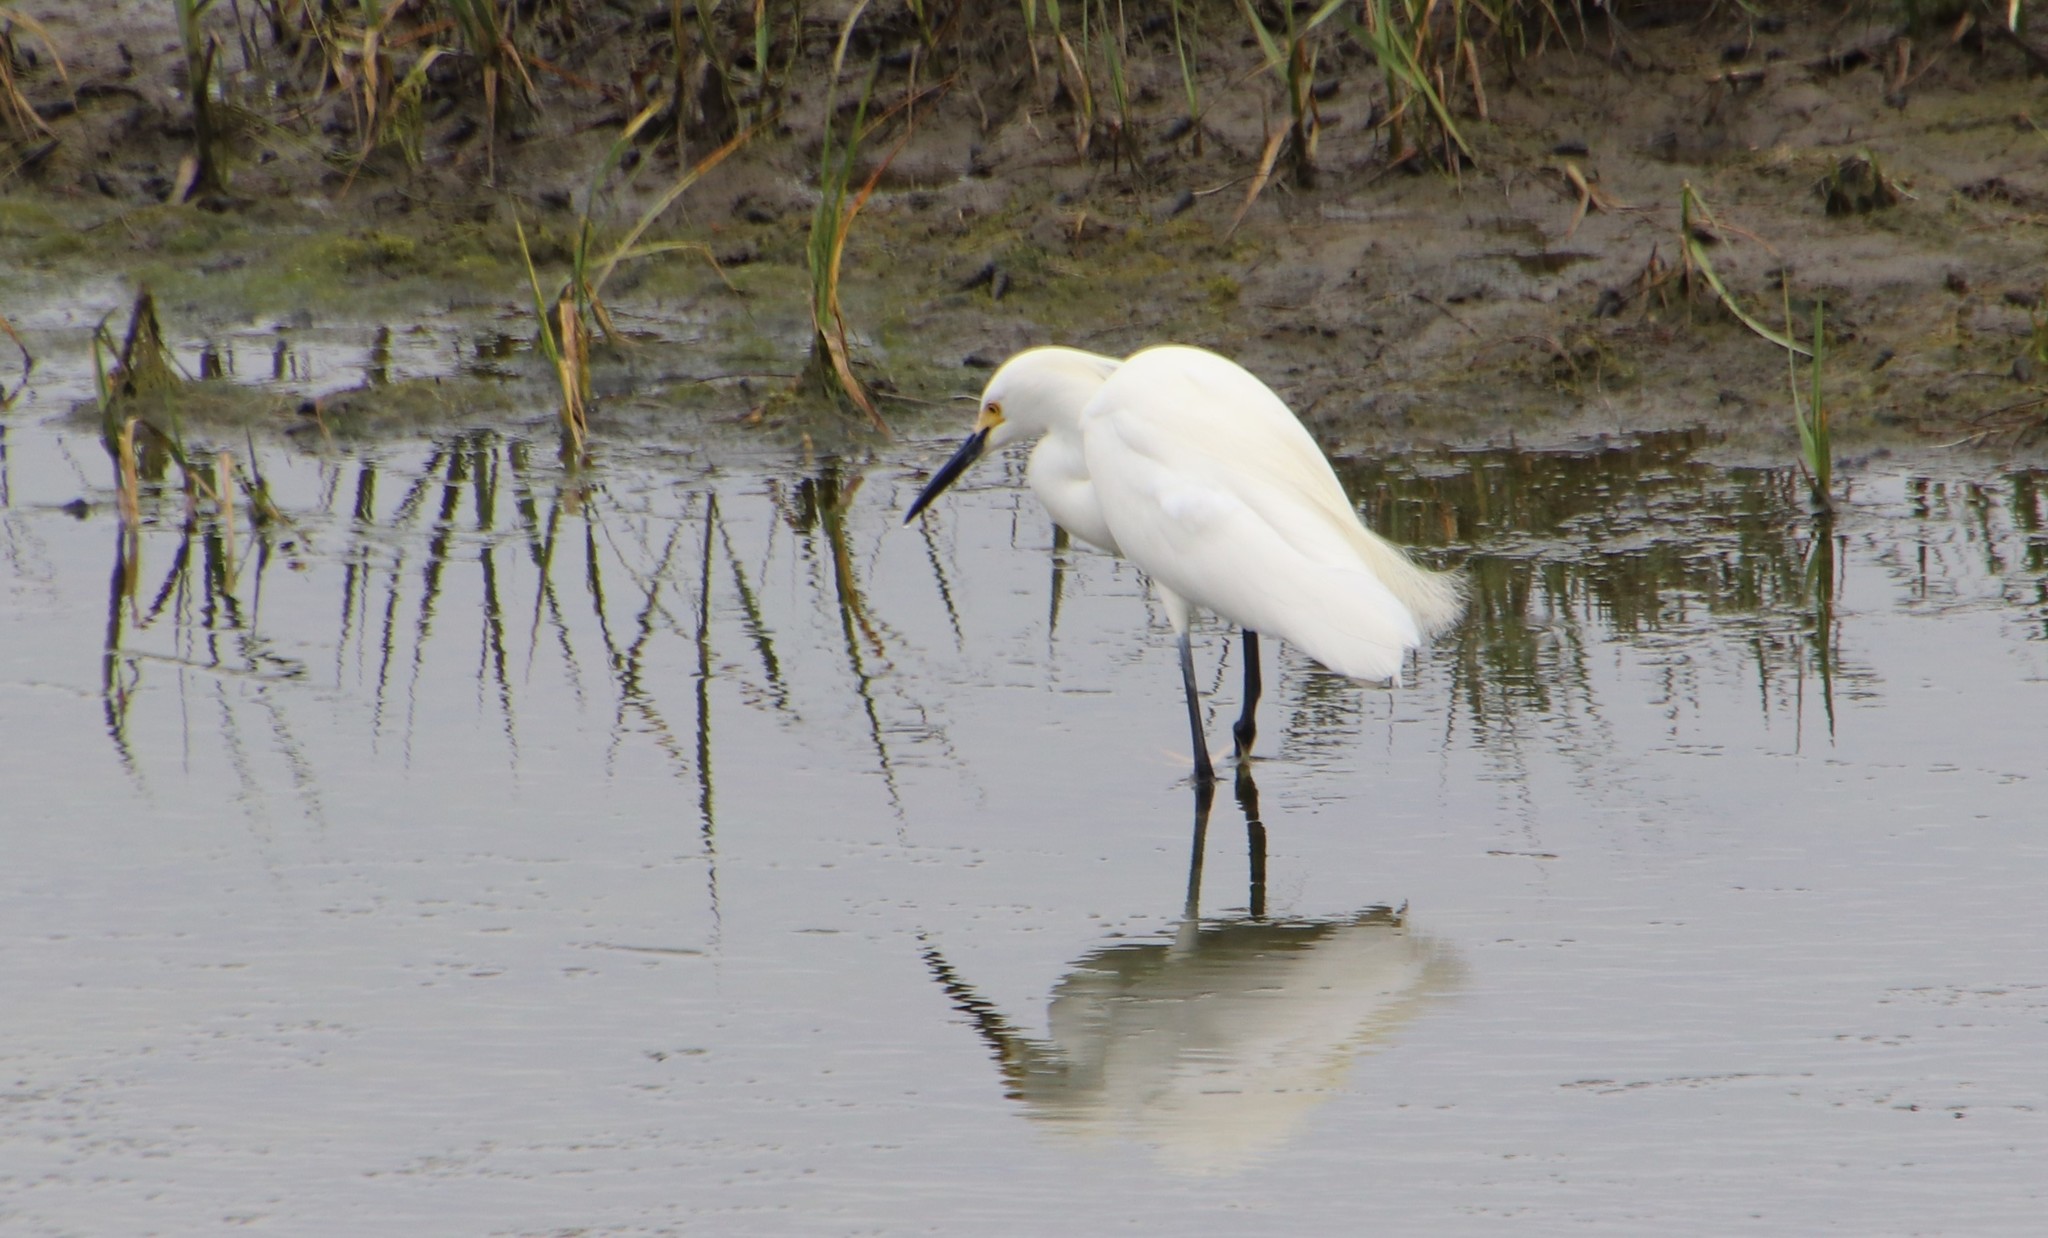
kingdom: Animalia
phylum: Chordata
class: Aves
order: Pelecaniformes
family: Ardeidae
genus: Egretta
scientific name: Egretta thula
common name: Snowy egret
